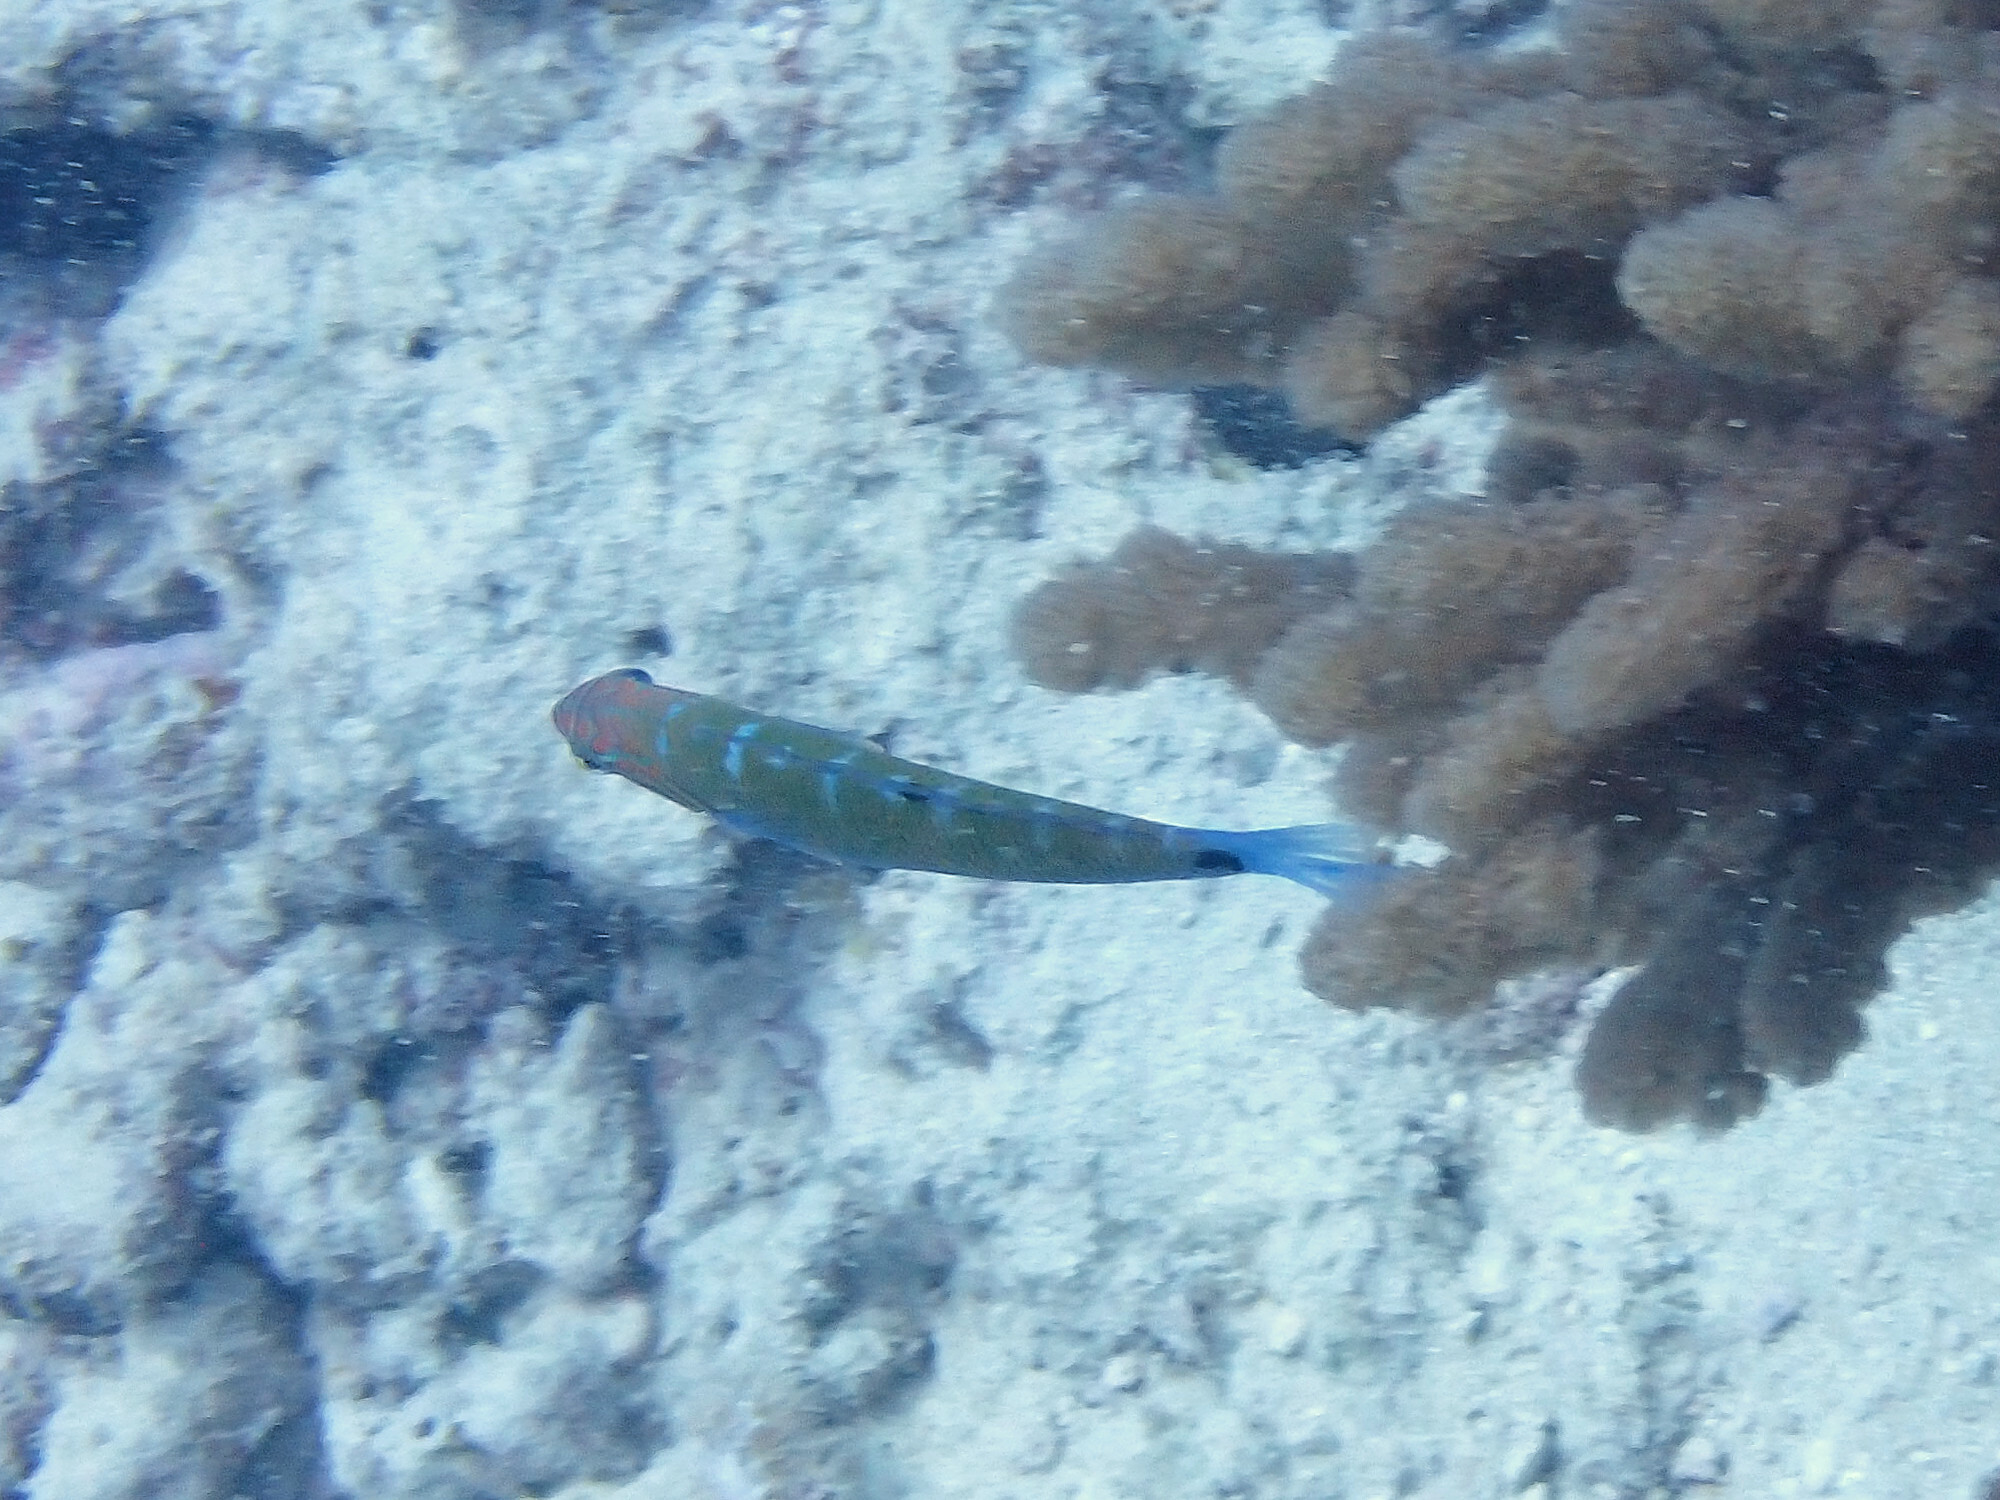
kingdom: Animalia
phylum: Chordata
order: Perciformes
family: Labridae
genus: Thalassoma
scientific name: Thalassoma lunare
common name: Blue wrasse
